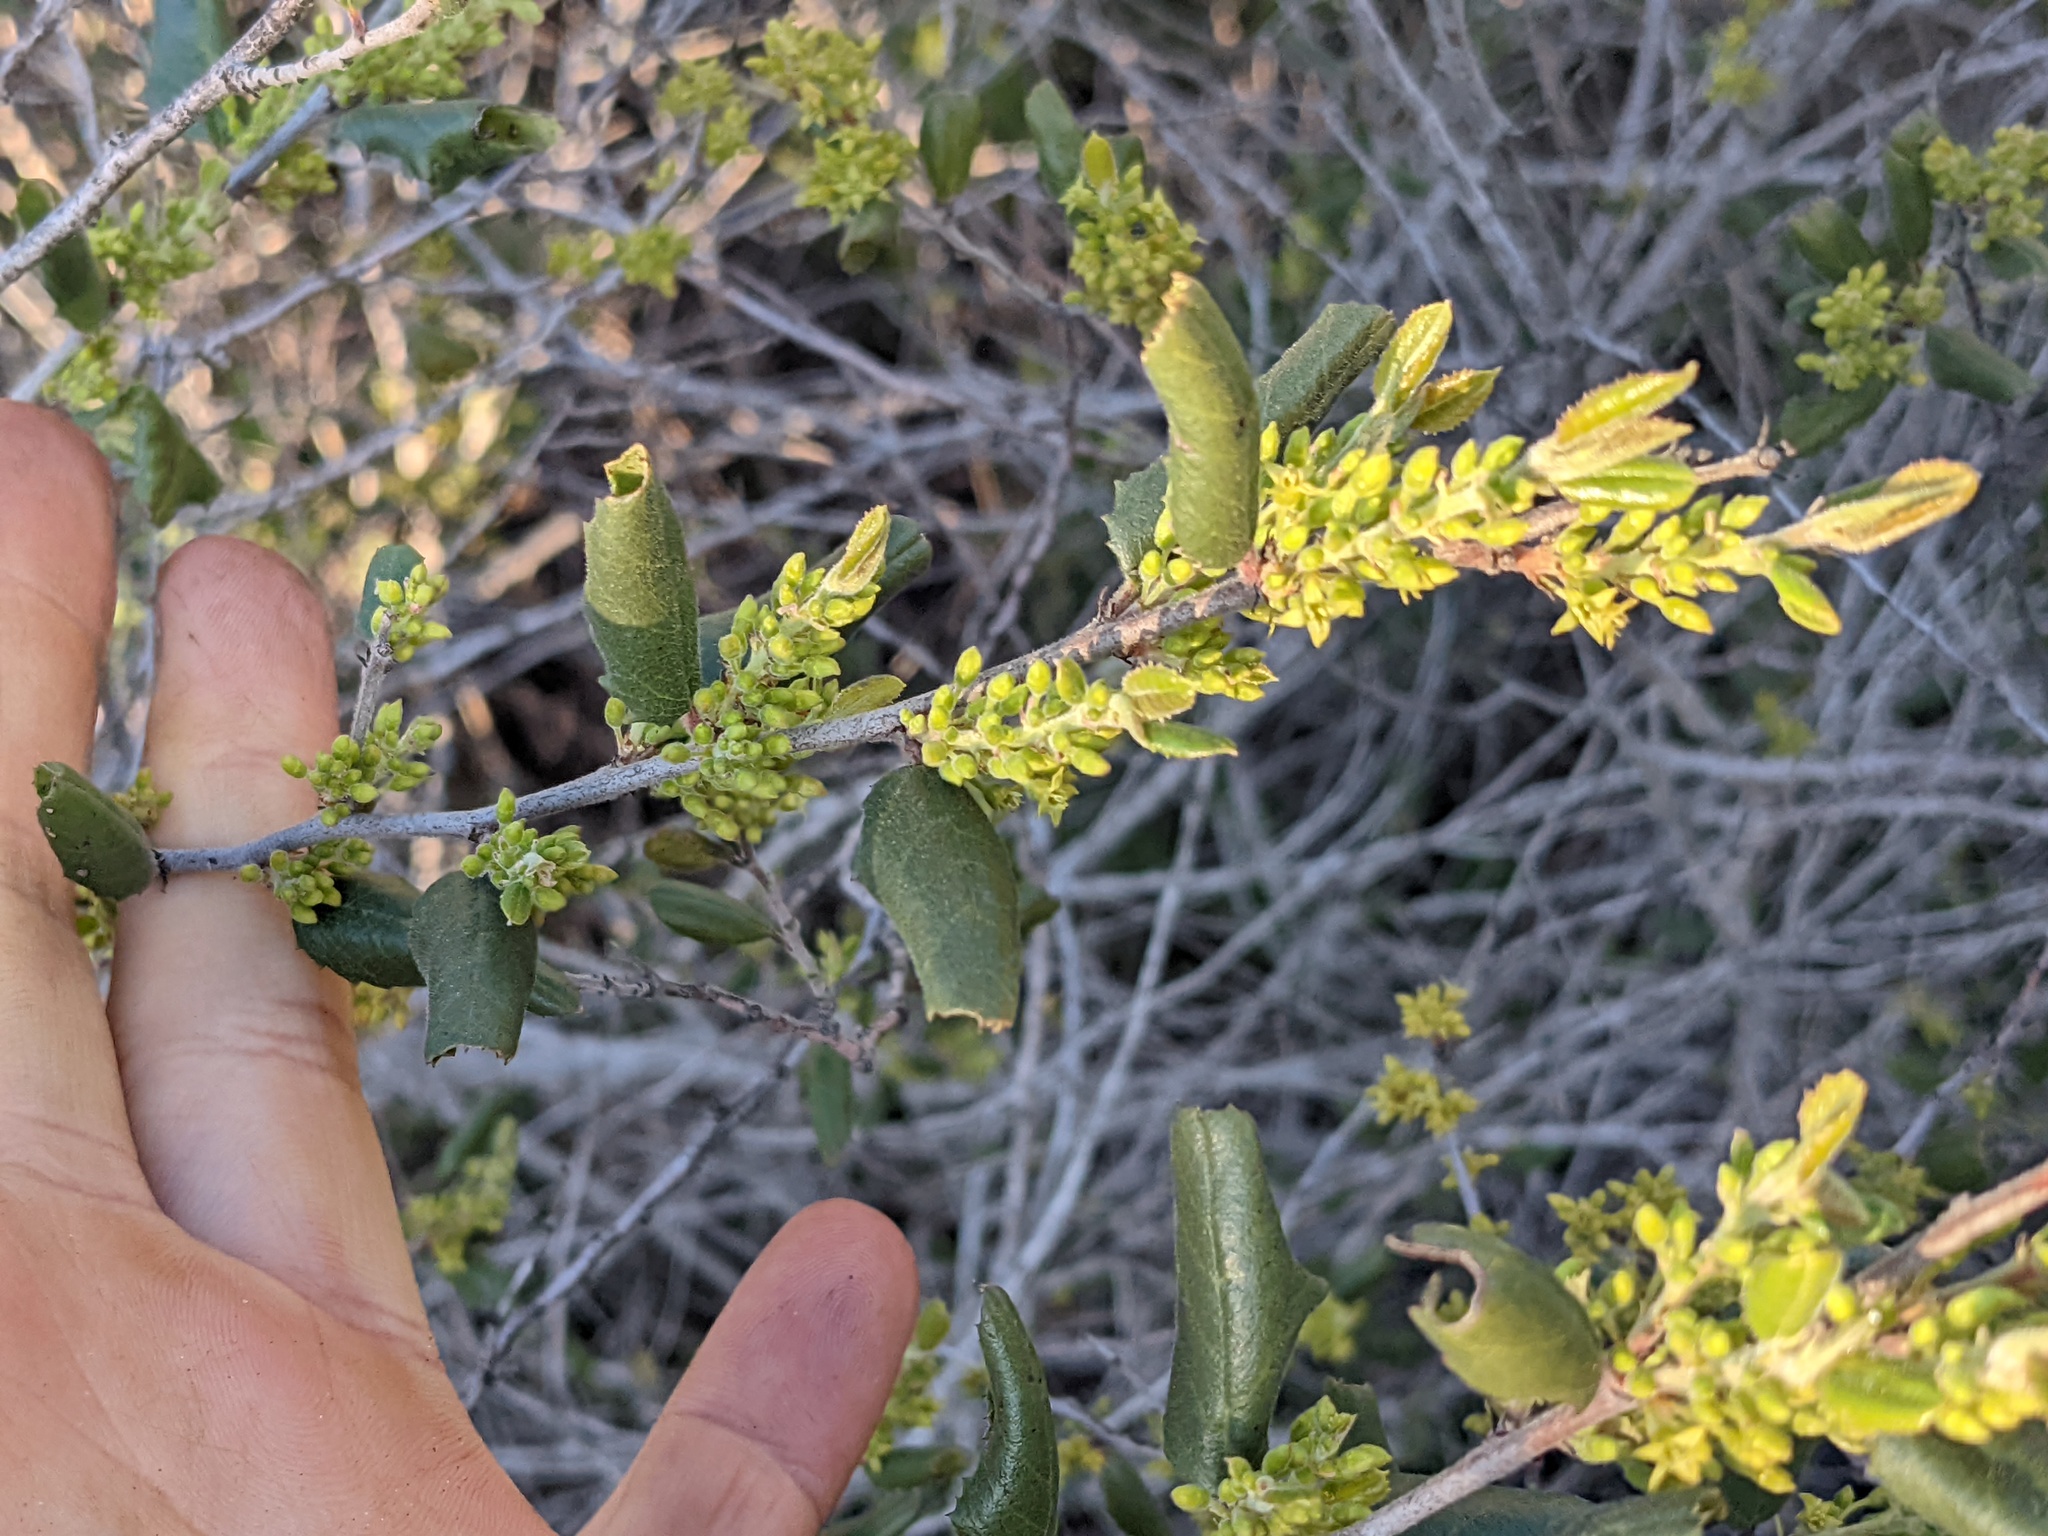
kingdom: Plantae
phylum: Tracheophyta
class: Magnoliopsida
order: Rosales
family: Rhamnaceae
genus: Endotropis
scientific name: Endotropis crocea
